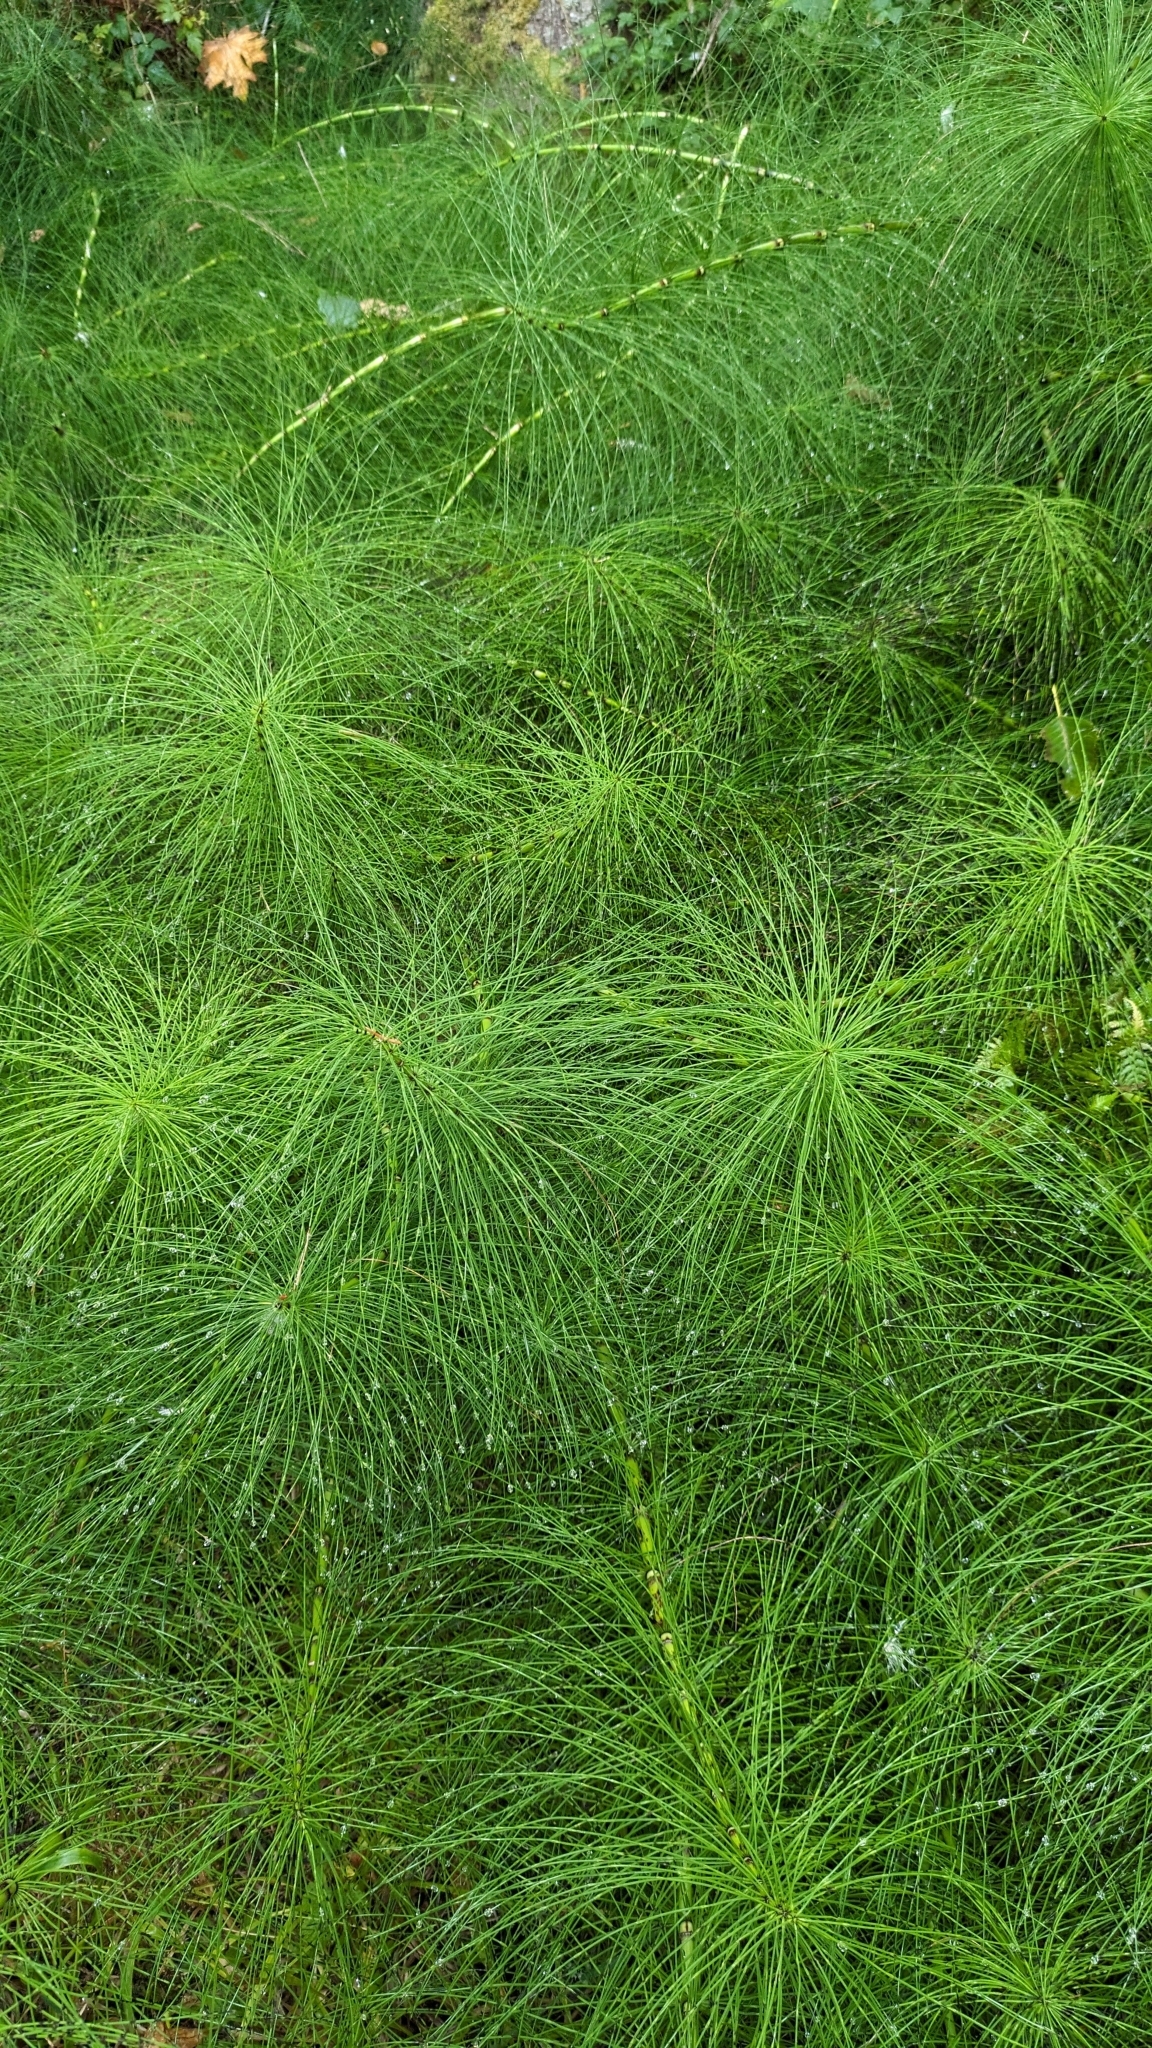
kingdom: Plantae
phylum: Tracheophyta
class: Polypodiopsida
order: Equisetales
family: Equisetaceae
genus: Equisetum
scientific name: Equisetum braunii
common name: Braun's horsetail
